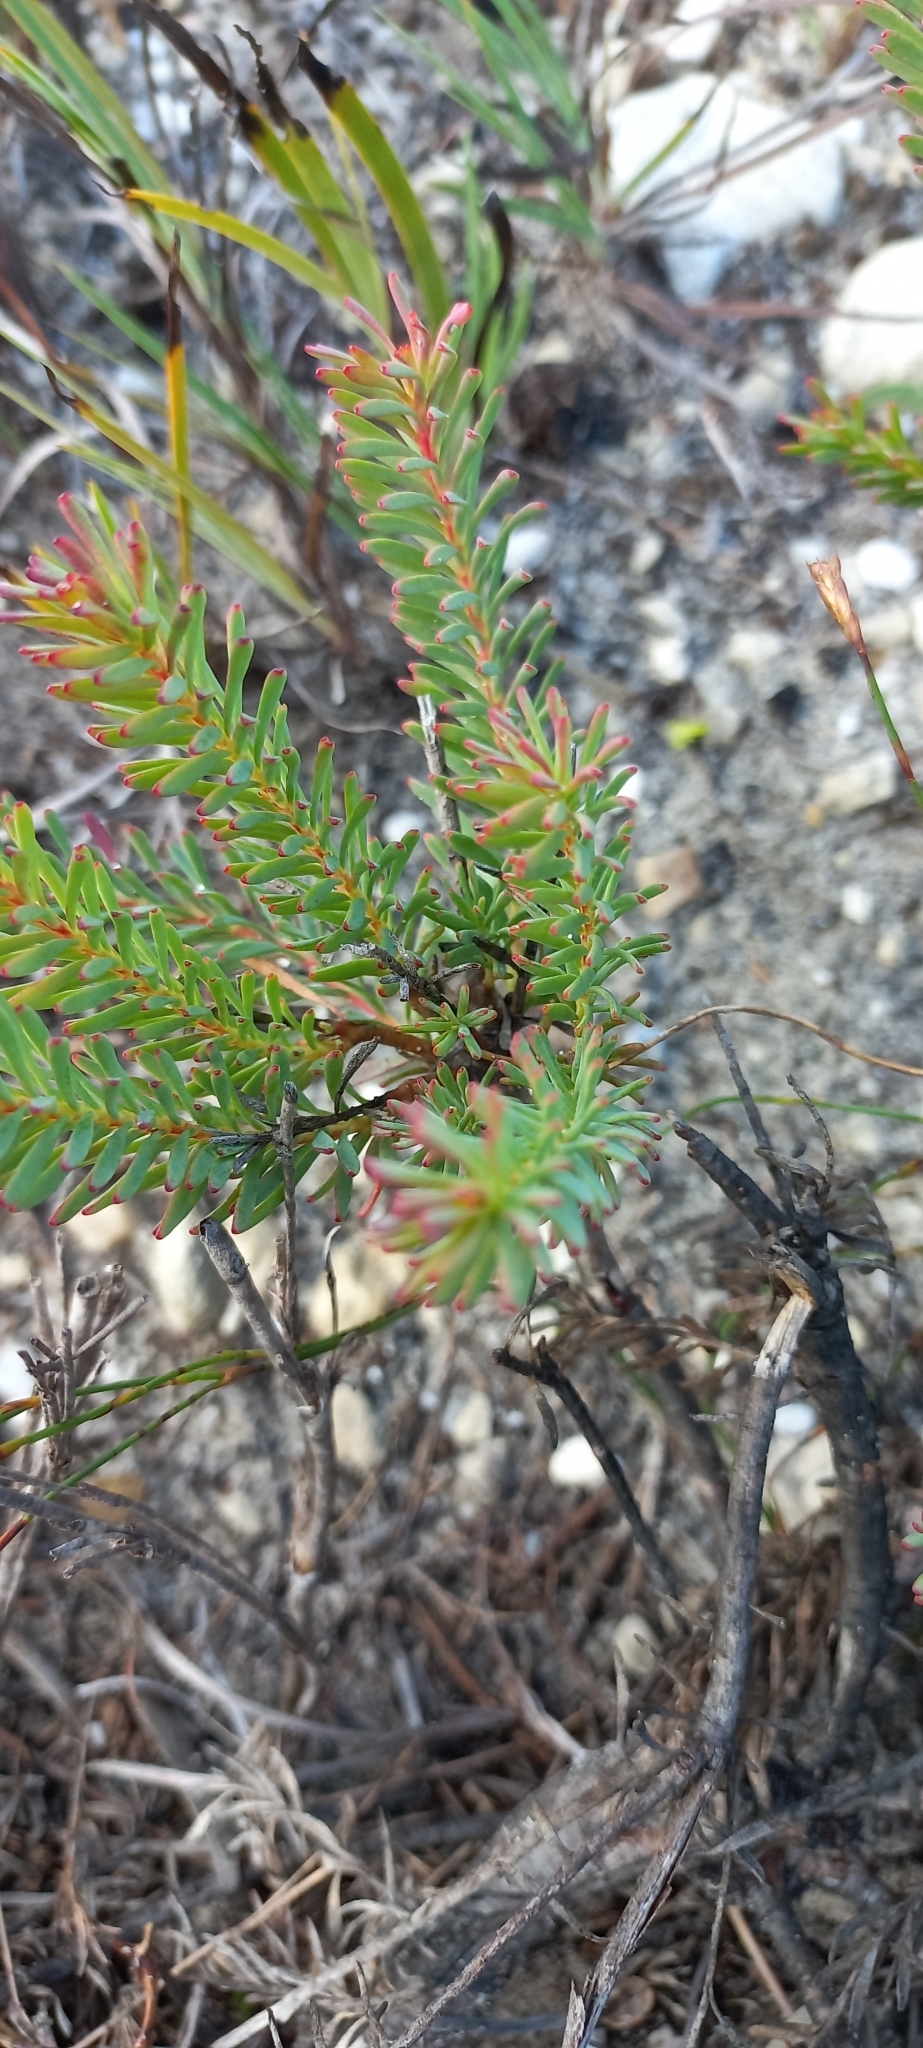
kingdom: Plantae
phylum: Tracheophyta
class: Magnoliopsida
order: Proteales
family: Proteaceae
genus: Leucadendron
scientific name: Leucadendron linifolium
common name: Line-leaf conebush
